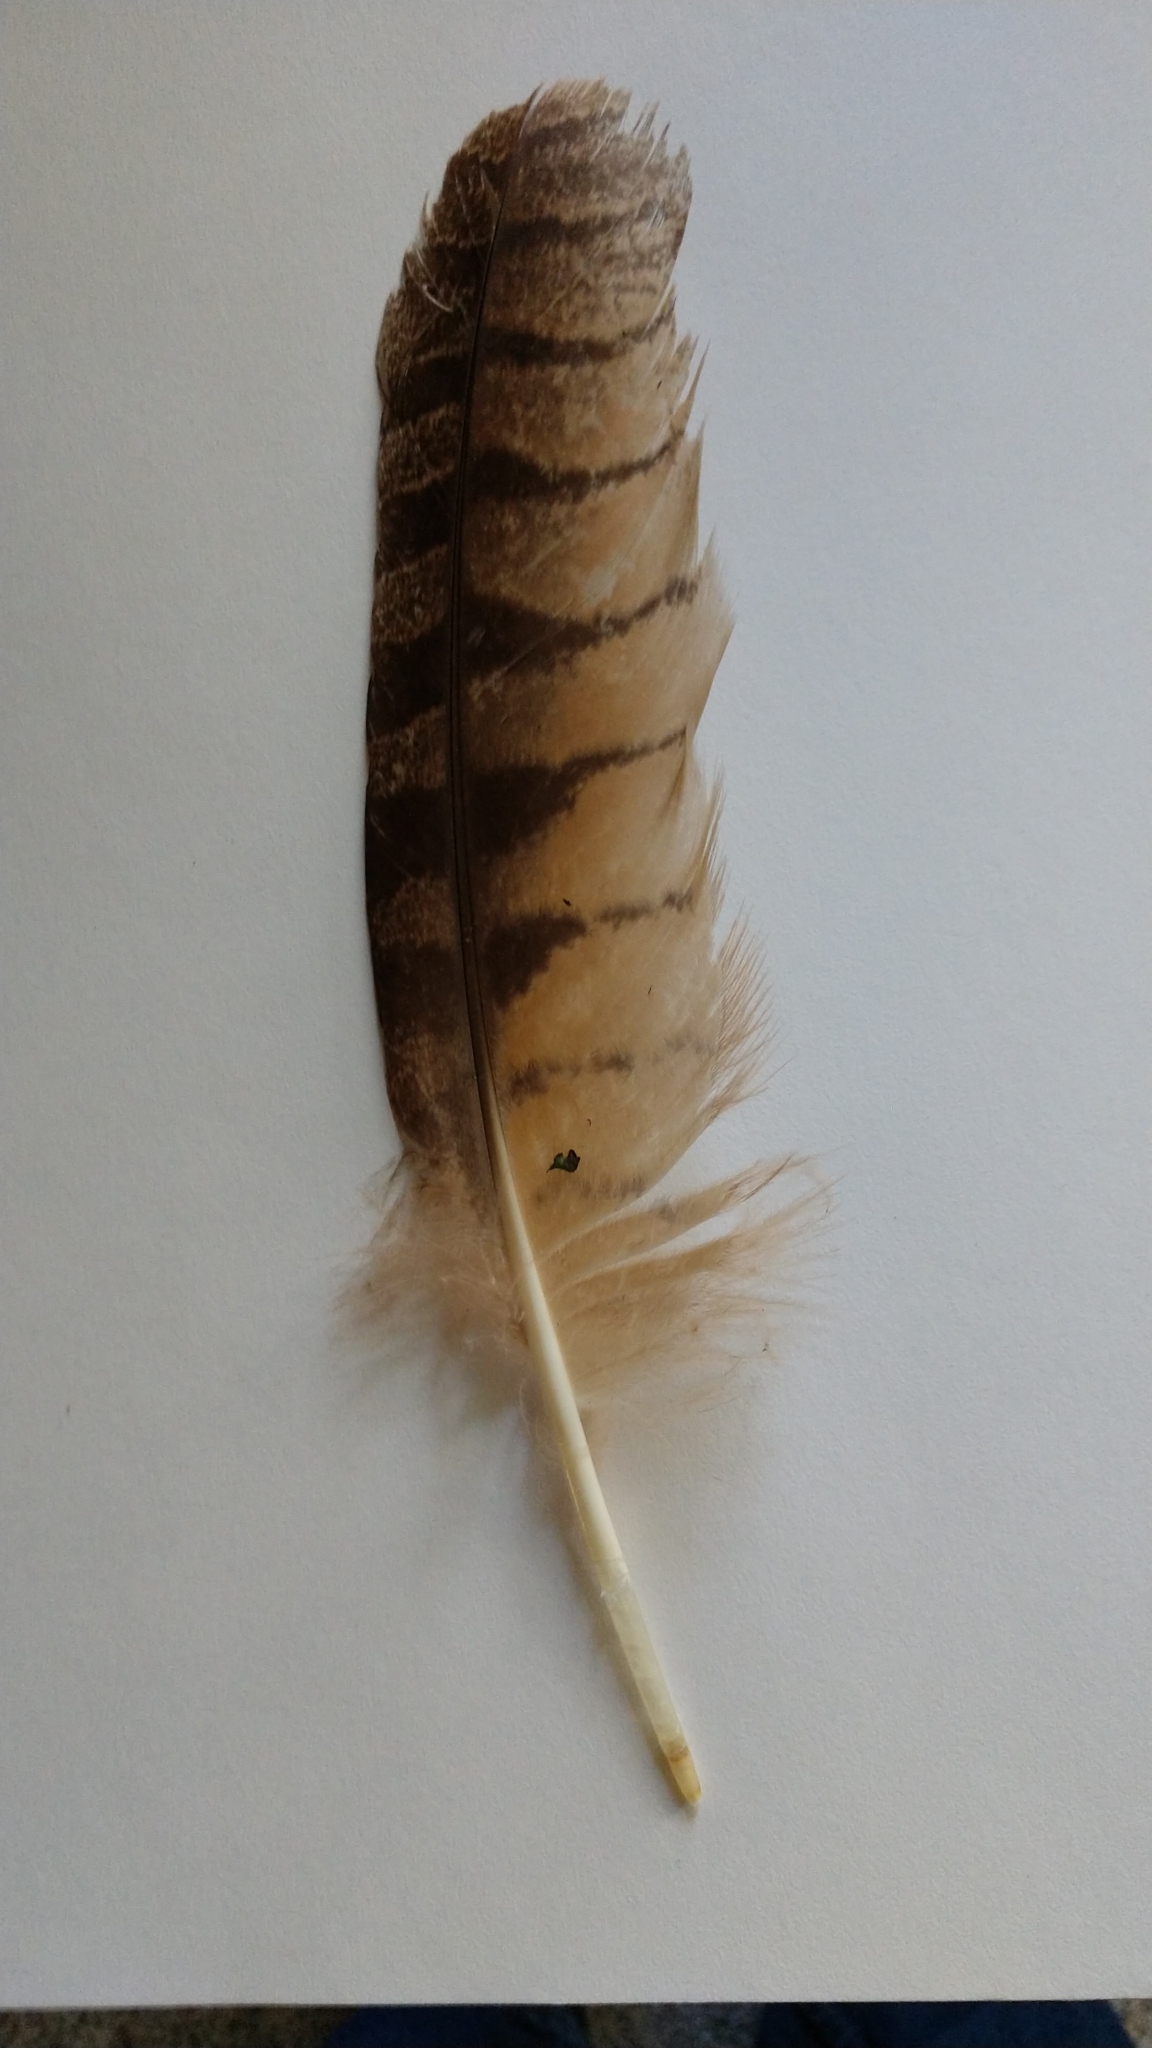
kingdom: Animalia
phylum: Chordata
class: Aves
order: Strigiformes
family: Strigidae
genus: Bubo
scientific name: Bubo virginianus
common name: Great horned owl
